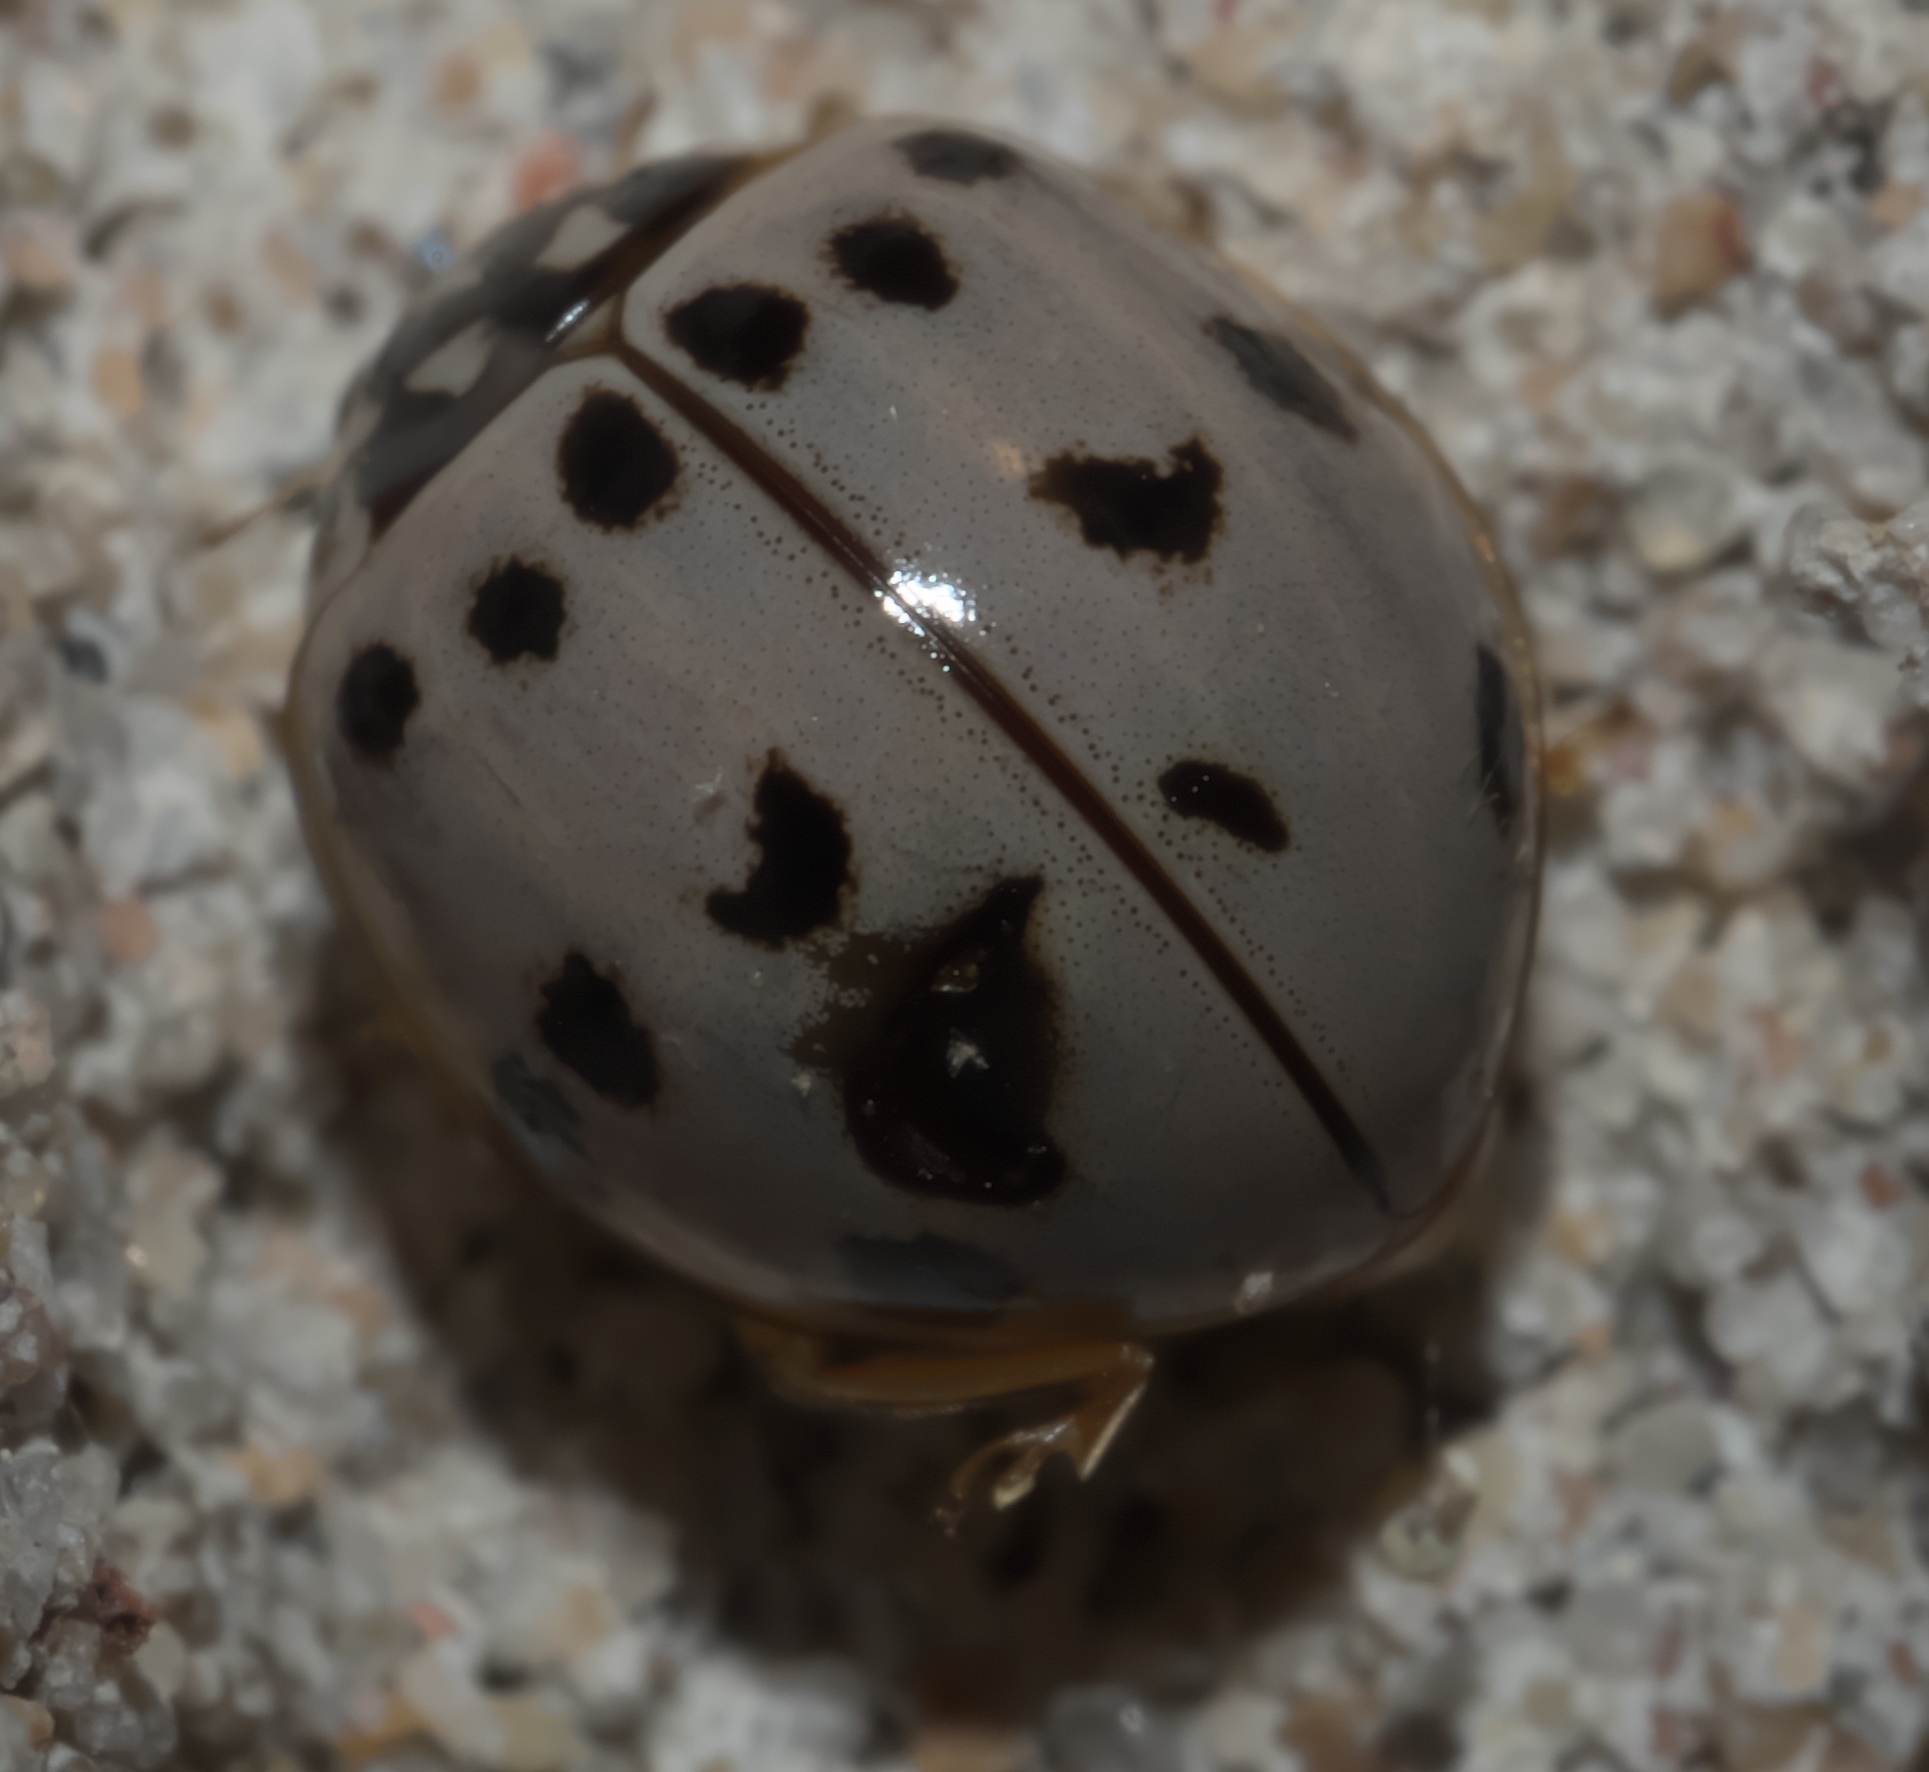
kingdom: Animalia
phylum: Arthropoda
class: Insecta
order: Coleoptera
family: Coccinellidae
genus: Olla
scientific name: Olla v-nigrum
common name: Ashy gray lady beetle
